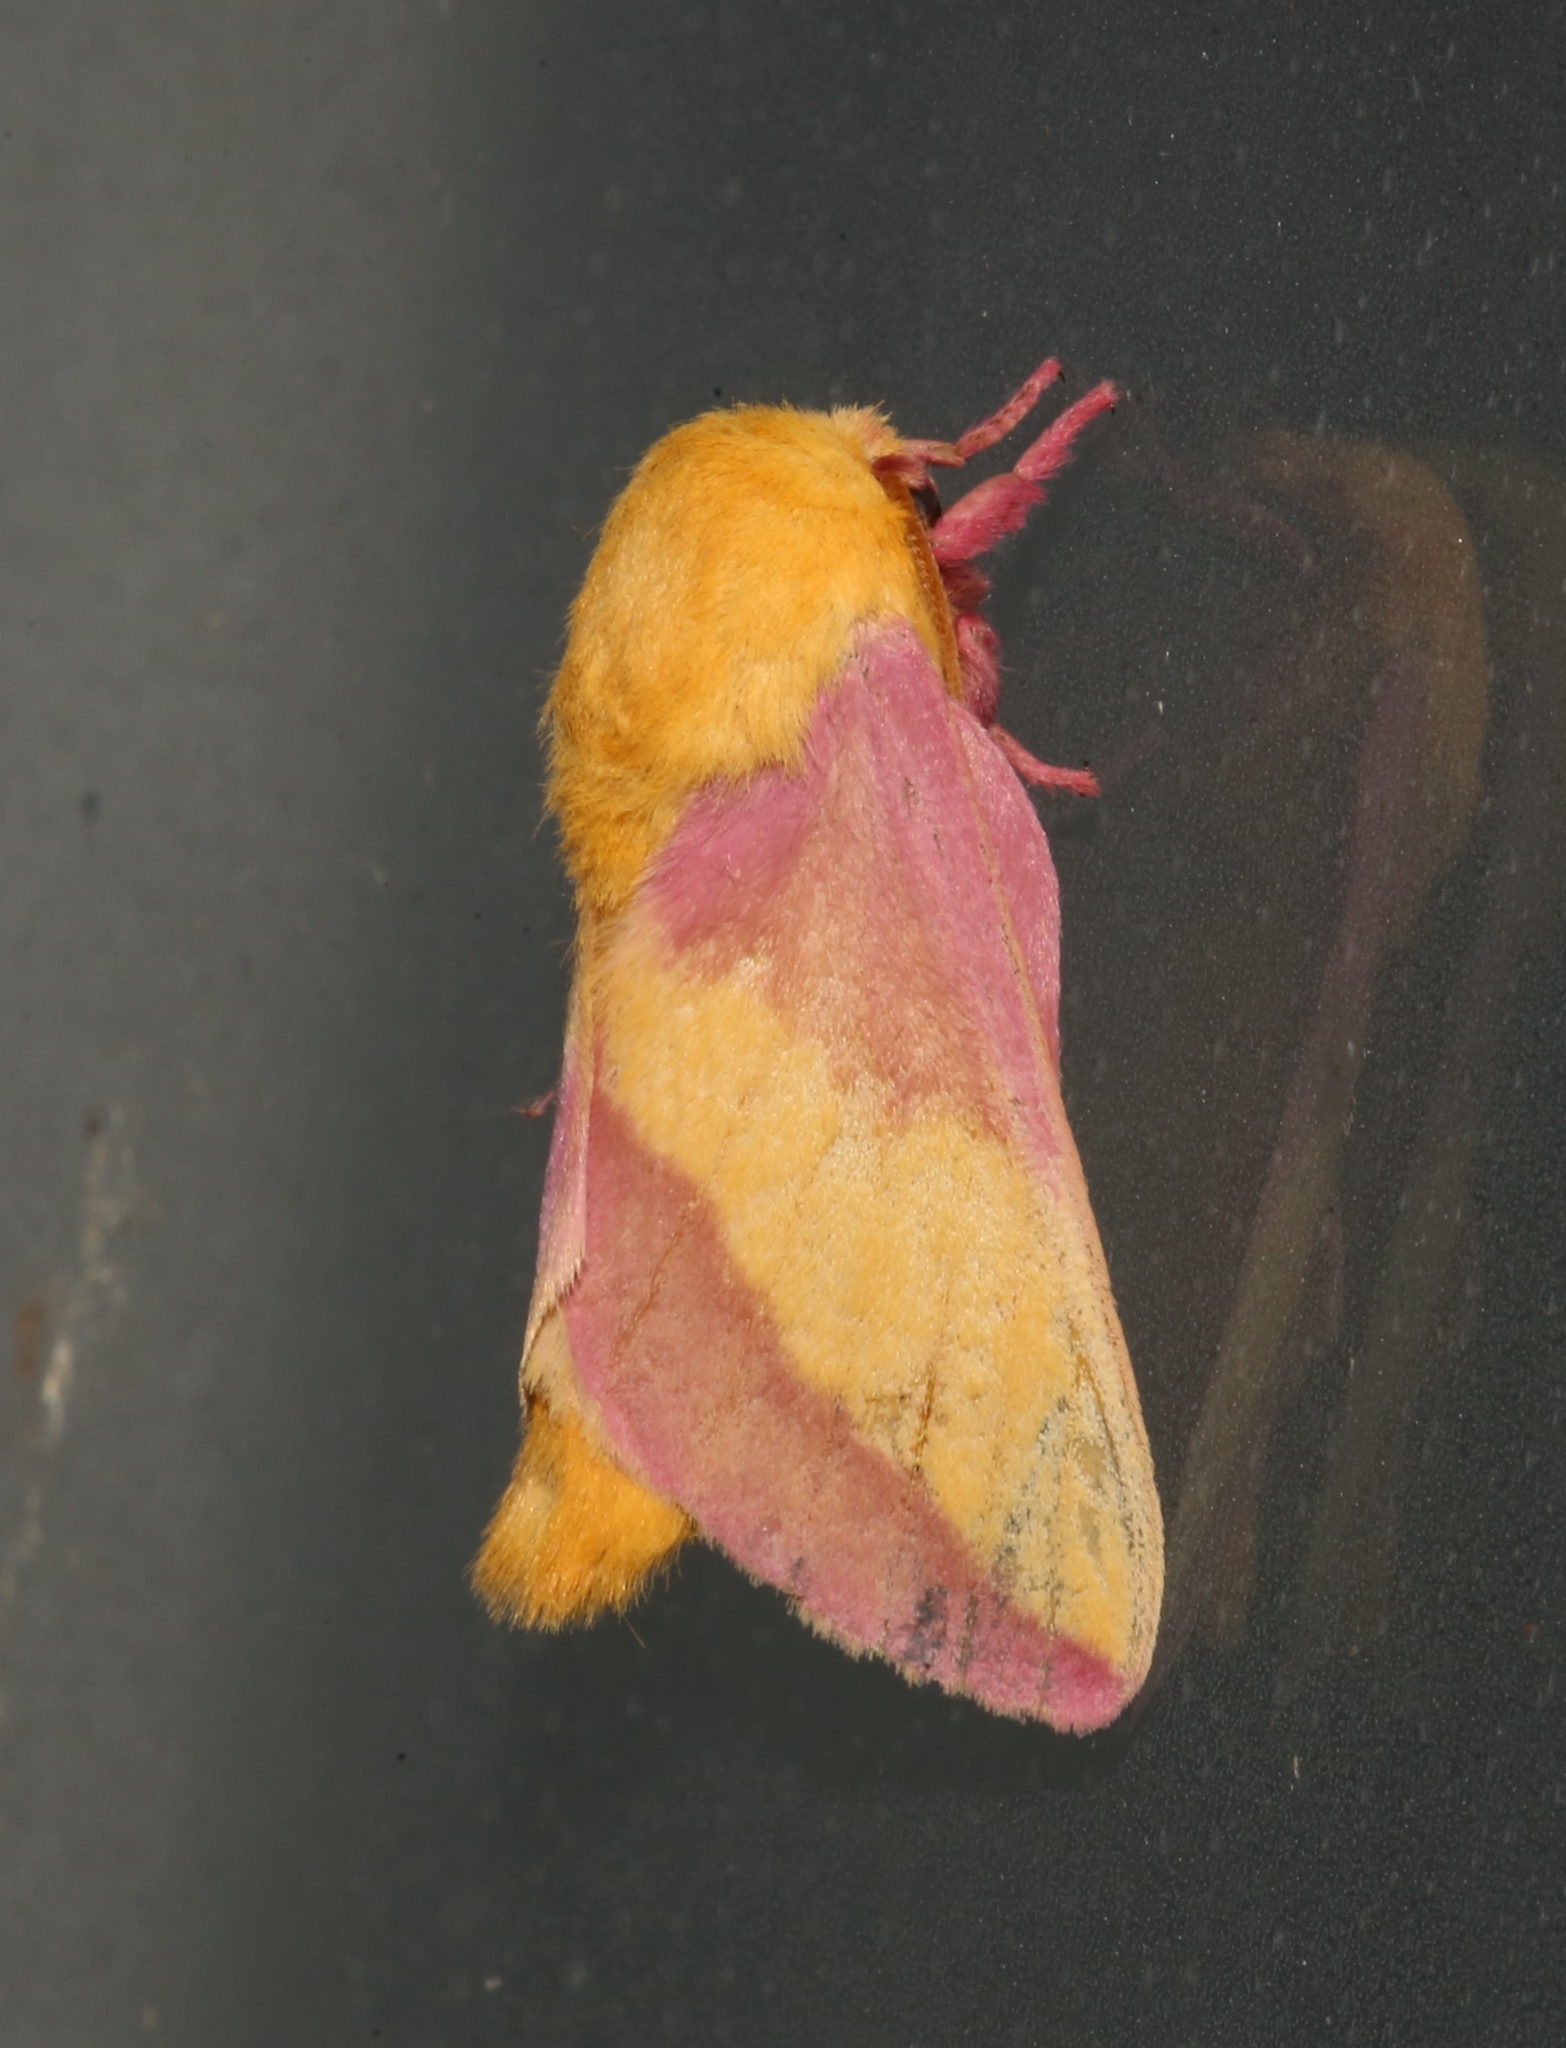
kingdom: Animalia
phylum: Arthropoda
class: Insecta
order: Lepidoptera
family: Saturniidae
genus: Dryocampa
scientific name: Dryocampa rubicunda
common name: Rosy maple moth
